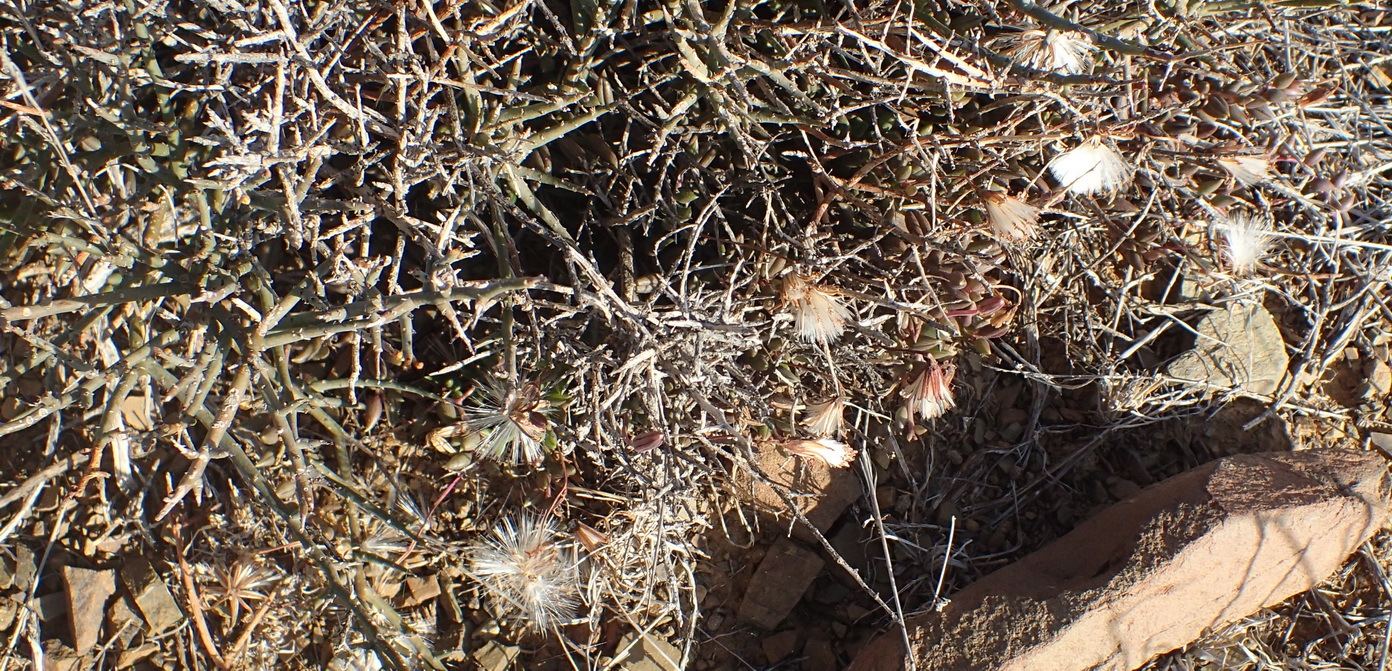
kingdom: Plantae
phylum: Tracheophyta
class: Magnoliopsida
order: Asterales
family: Asteraceae
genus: Curio
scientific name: Curio radicans
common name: Creeping-berry
